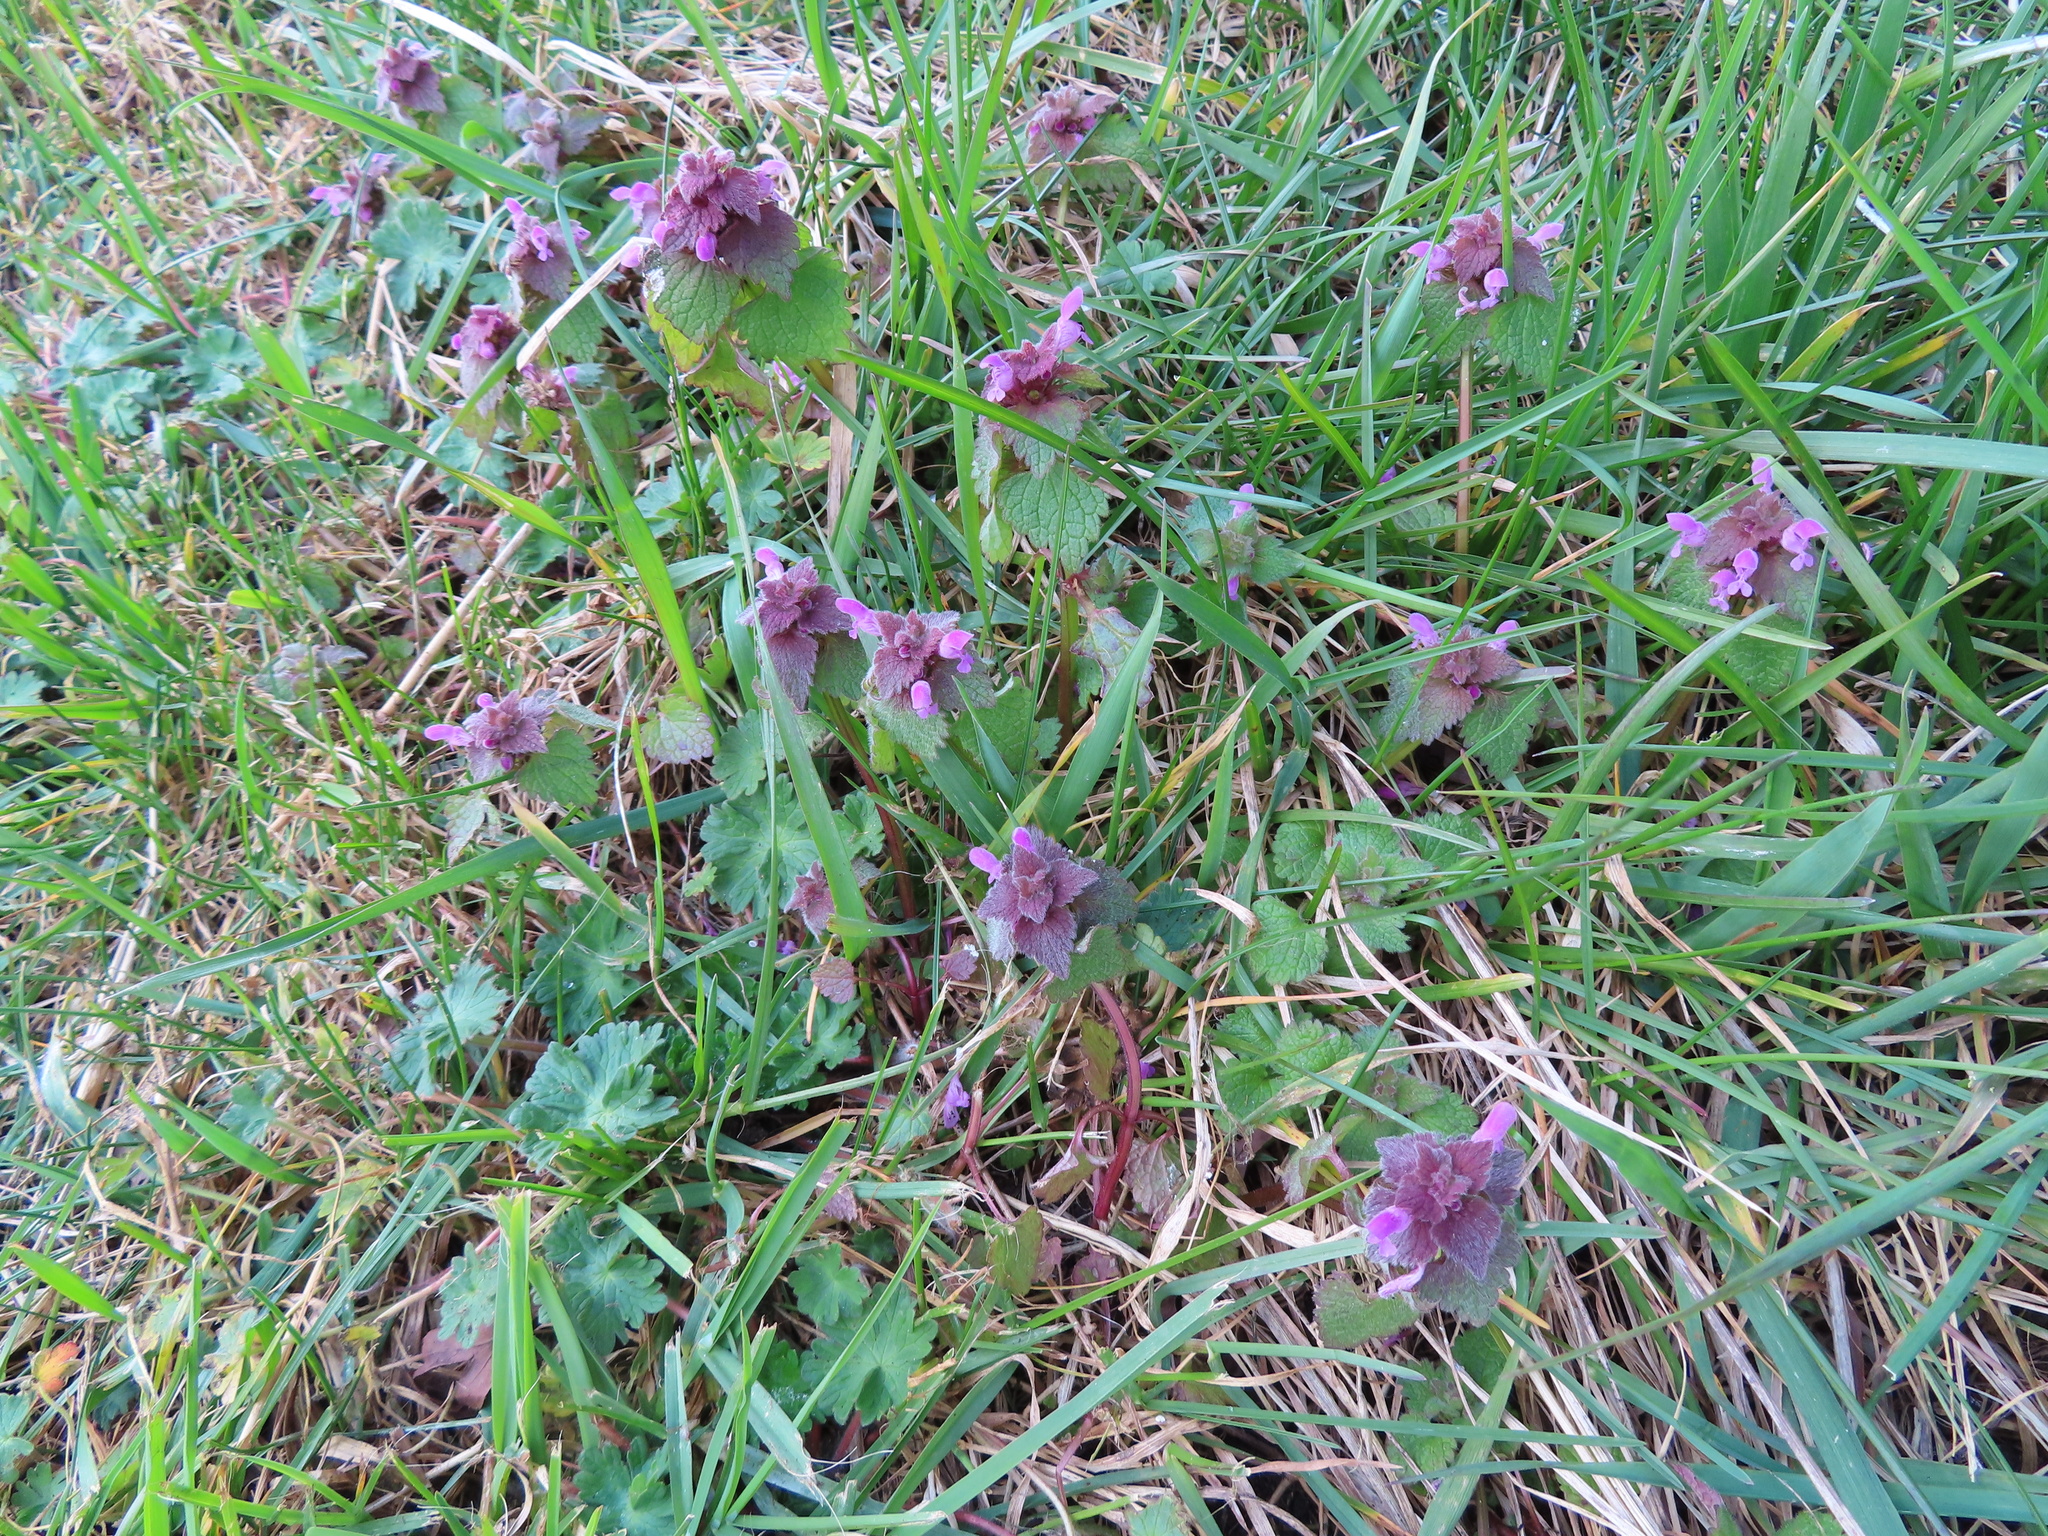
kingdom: Plantae
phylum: Tracheophyta
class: Magnoliopsida
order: Lamiales
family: Lamiaceae
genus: Lamium
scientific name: Lamium purpureum
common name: Red dead-nettle
